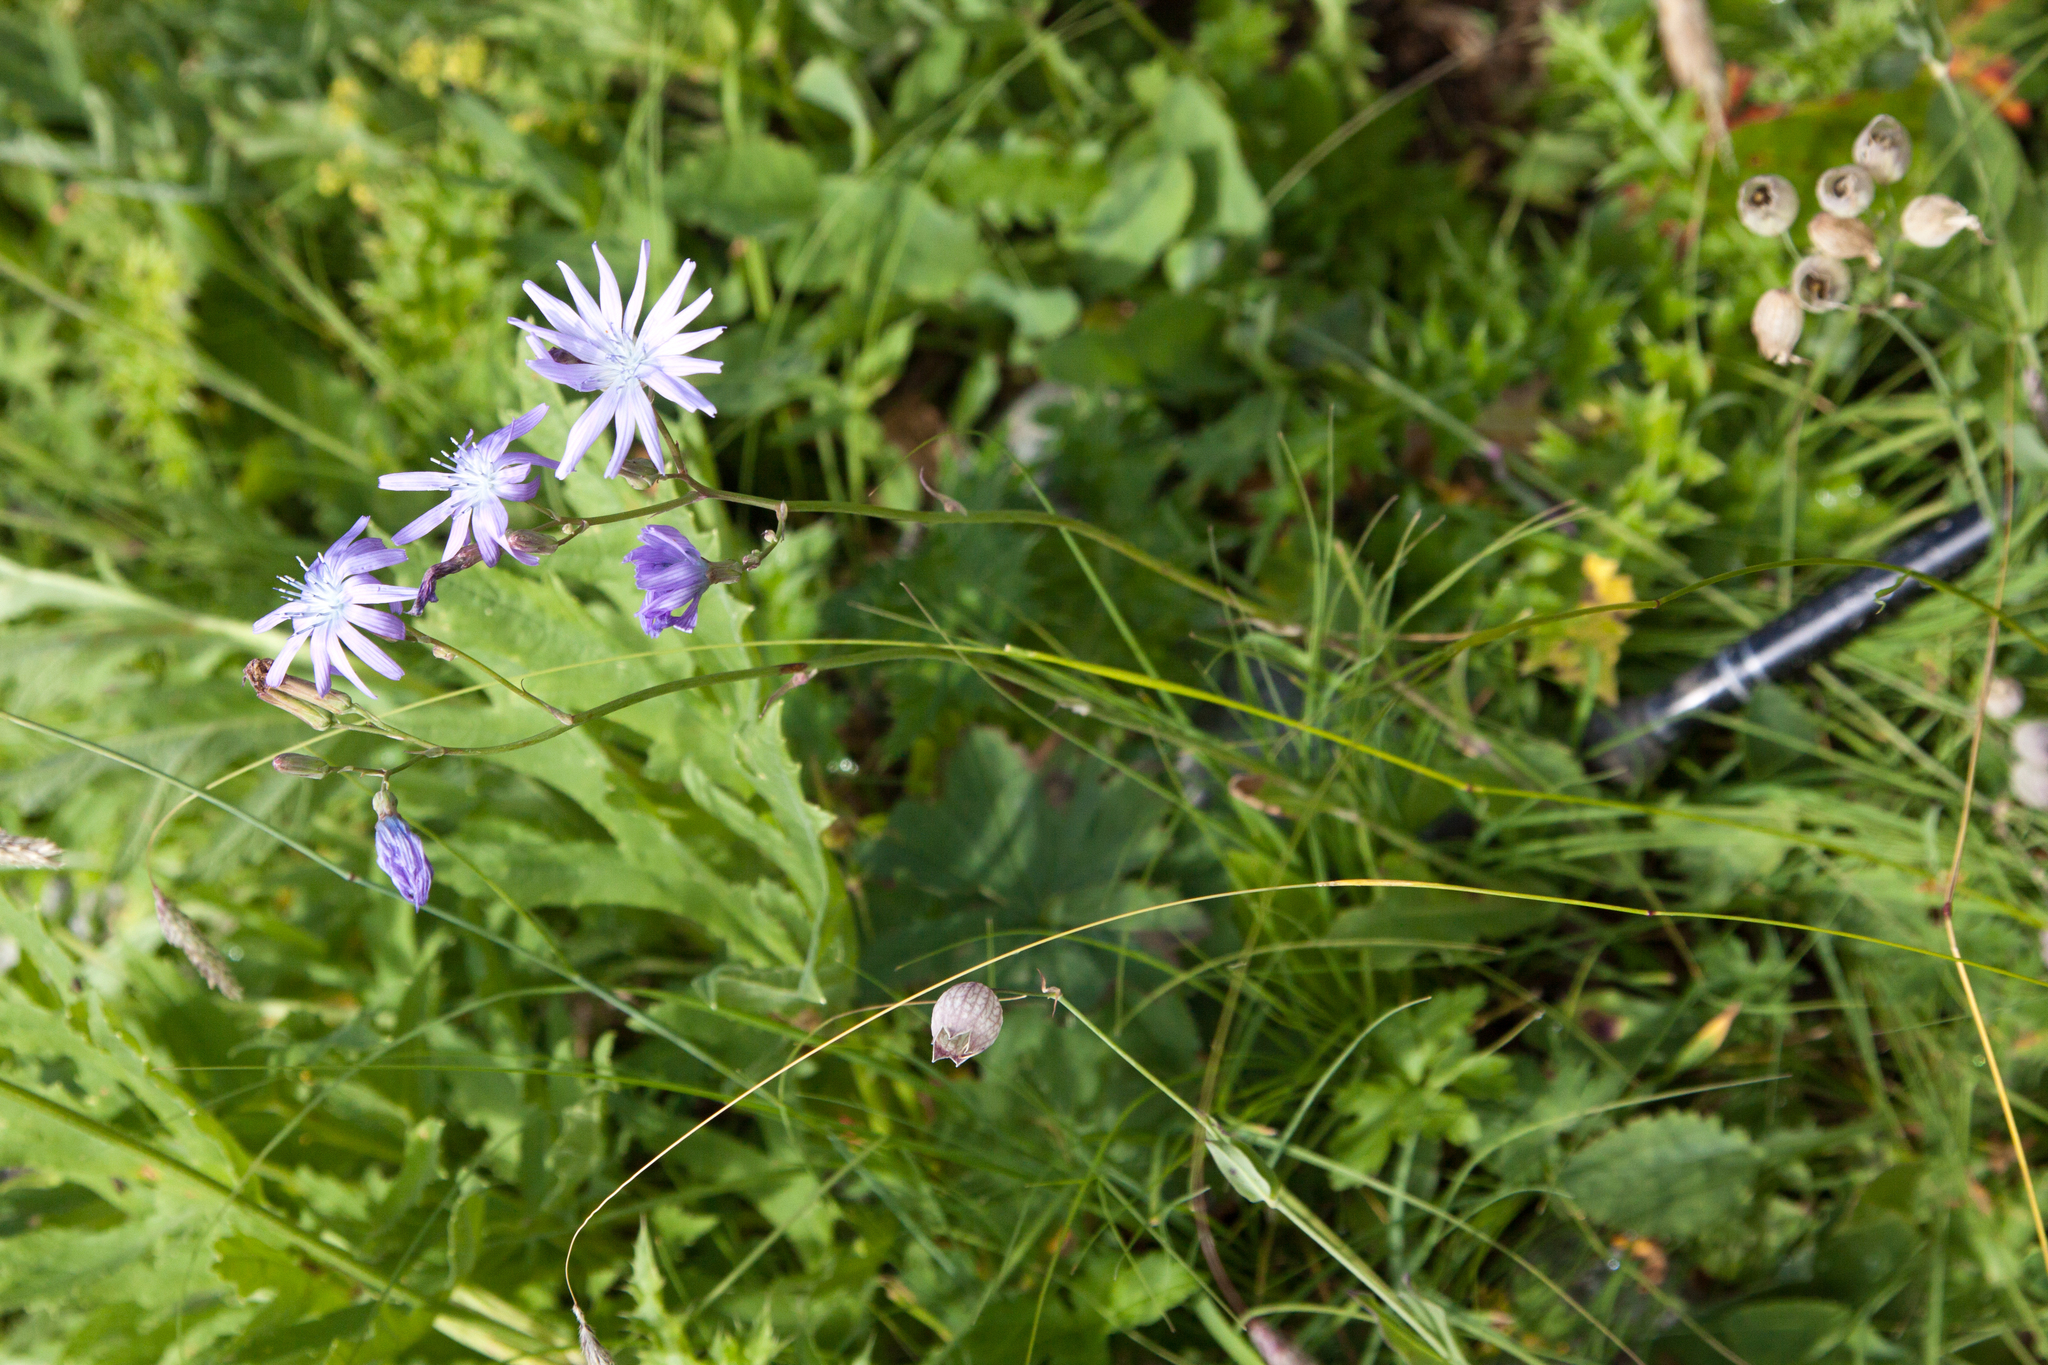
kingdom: Plantae
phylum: Tracheophyta
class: Magnoliopsida
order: Asterales
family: Asteraceae
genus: Lactuca
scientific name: Lactuca racemosa
